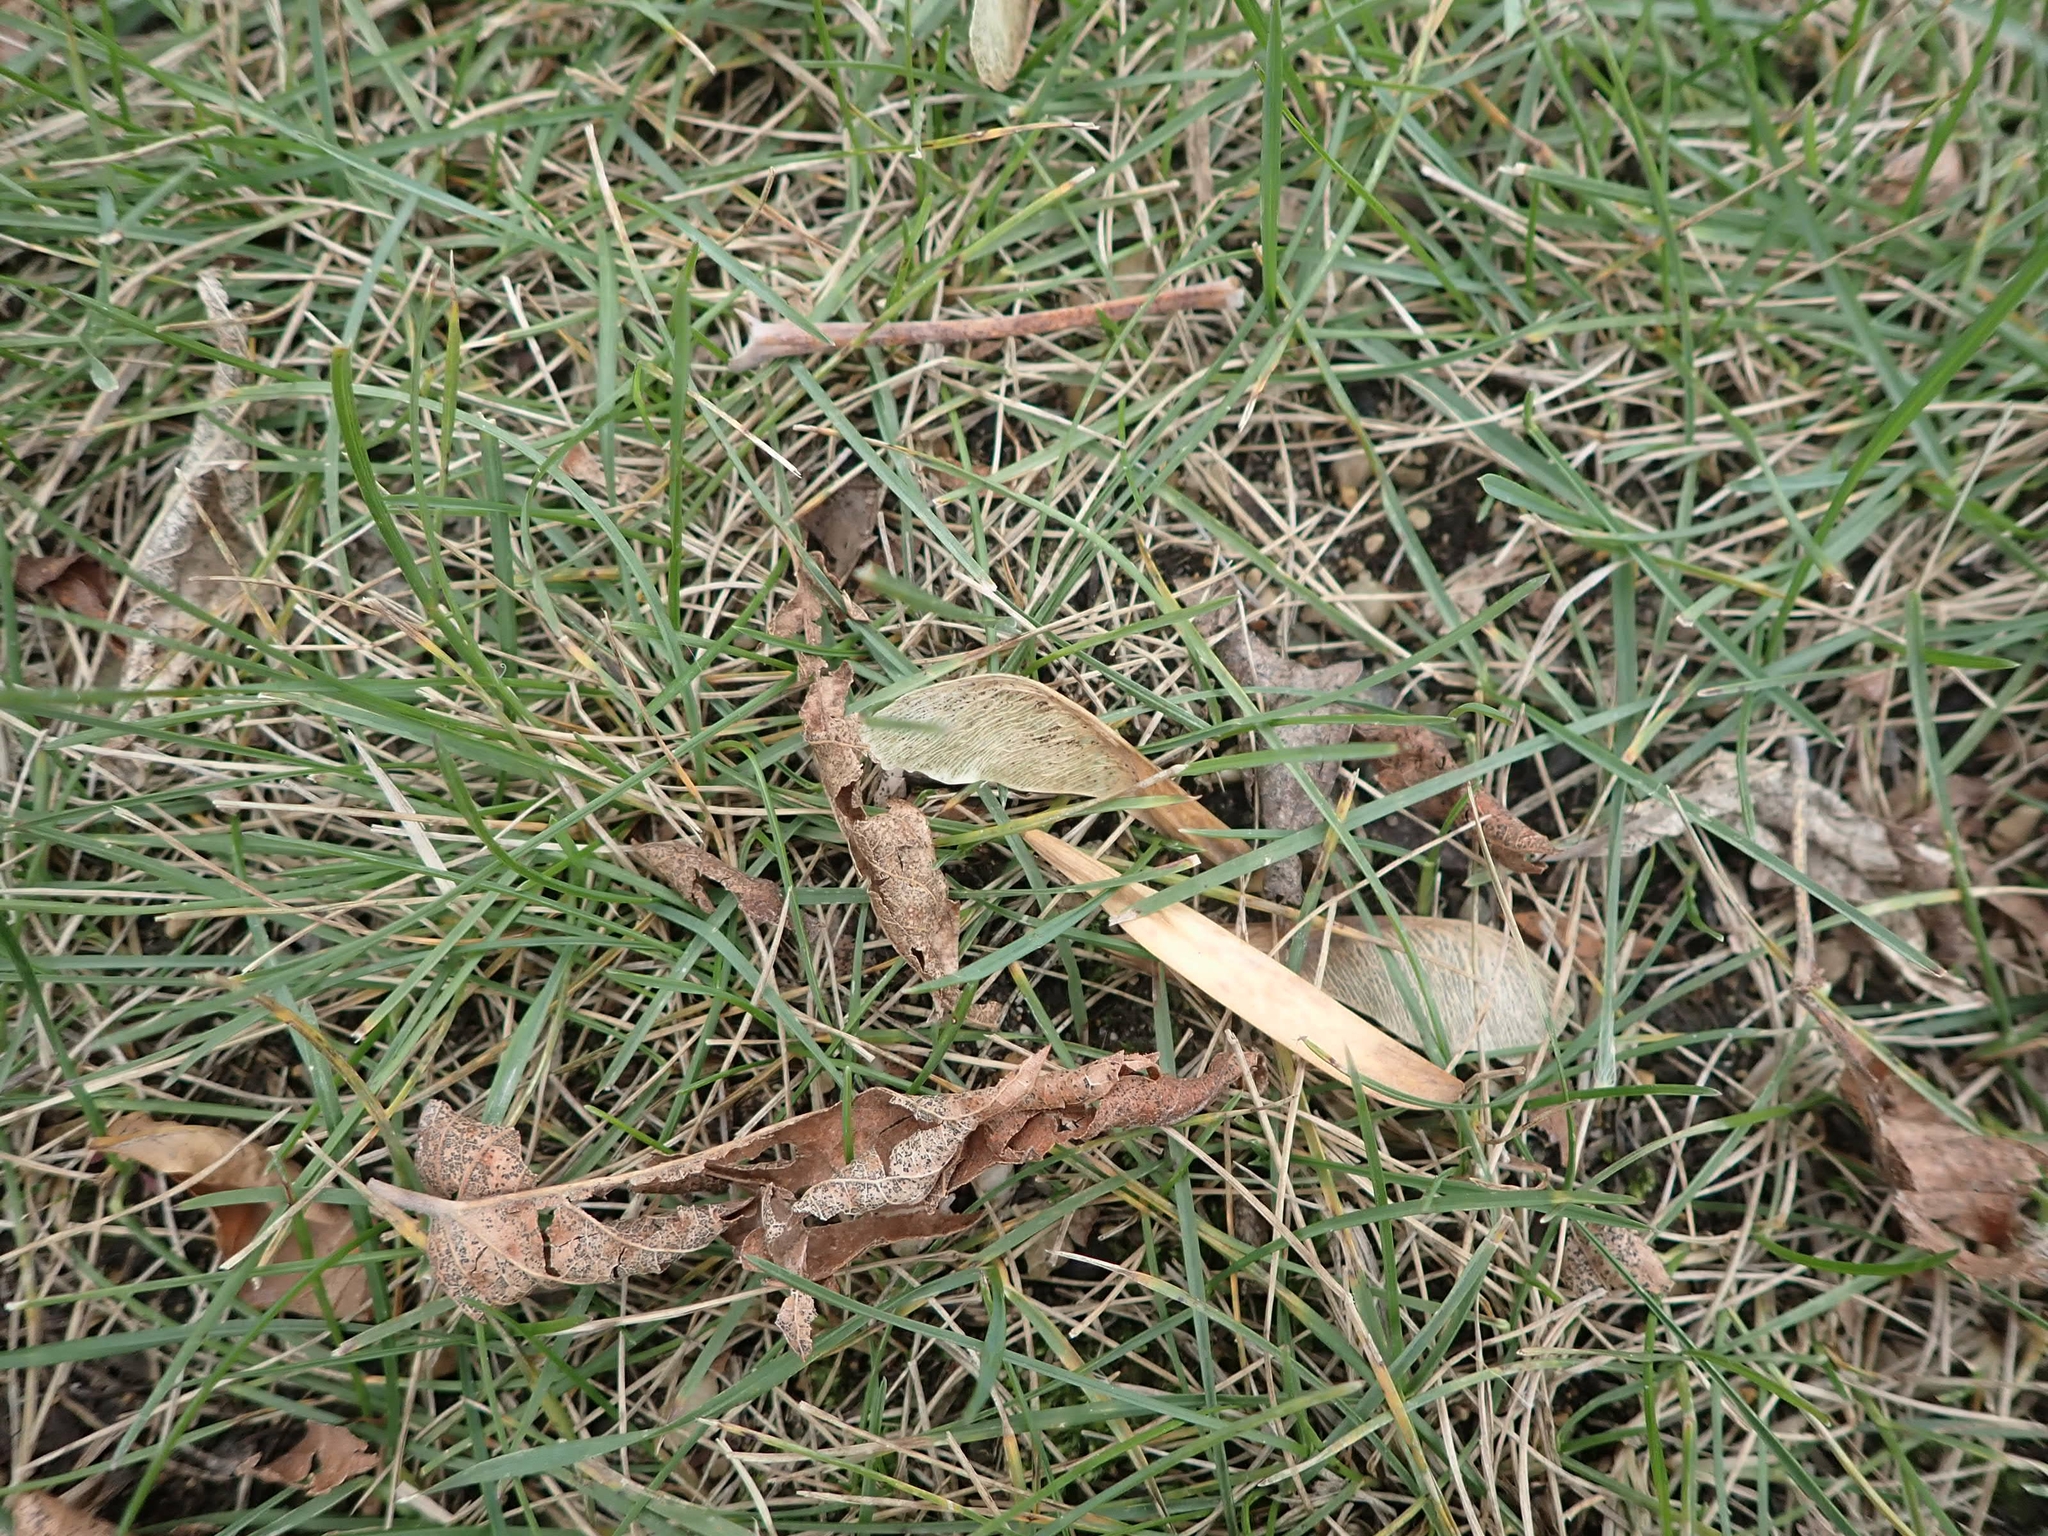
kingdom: Plantae
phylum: Tracheophyta
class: Magnoliopsida
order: Sapindales
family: Sapindaceae
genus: Acer
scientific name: Acer negundo
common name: Ashleaf maple
